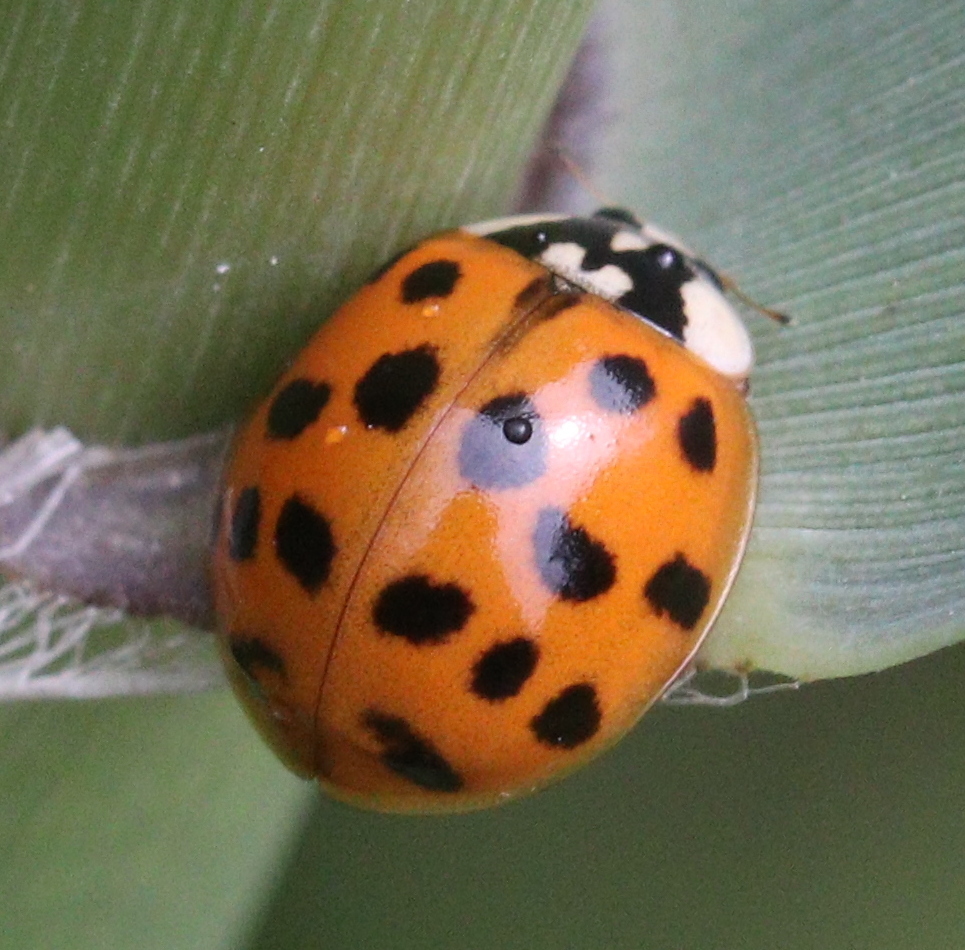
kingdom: Animalia
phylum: Arthropoda
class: Insecta
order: Coleoptera
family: Coccinellidae
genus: Harmonia
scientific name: Harmonia axyridis
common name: Harlequin ladybird
